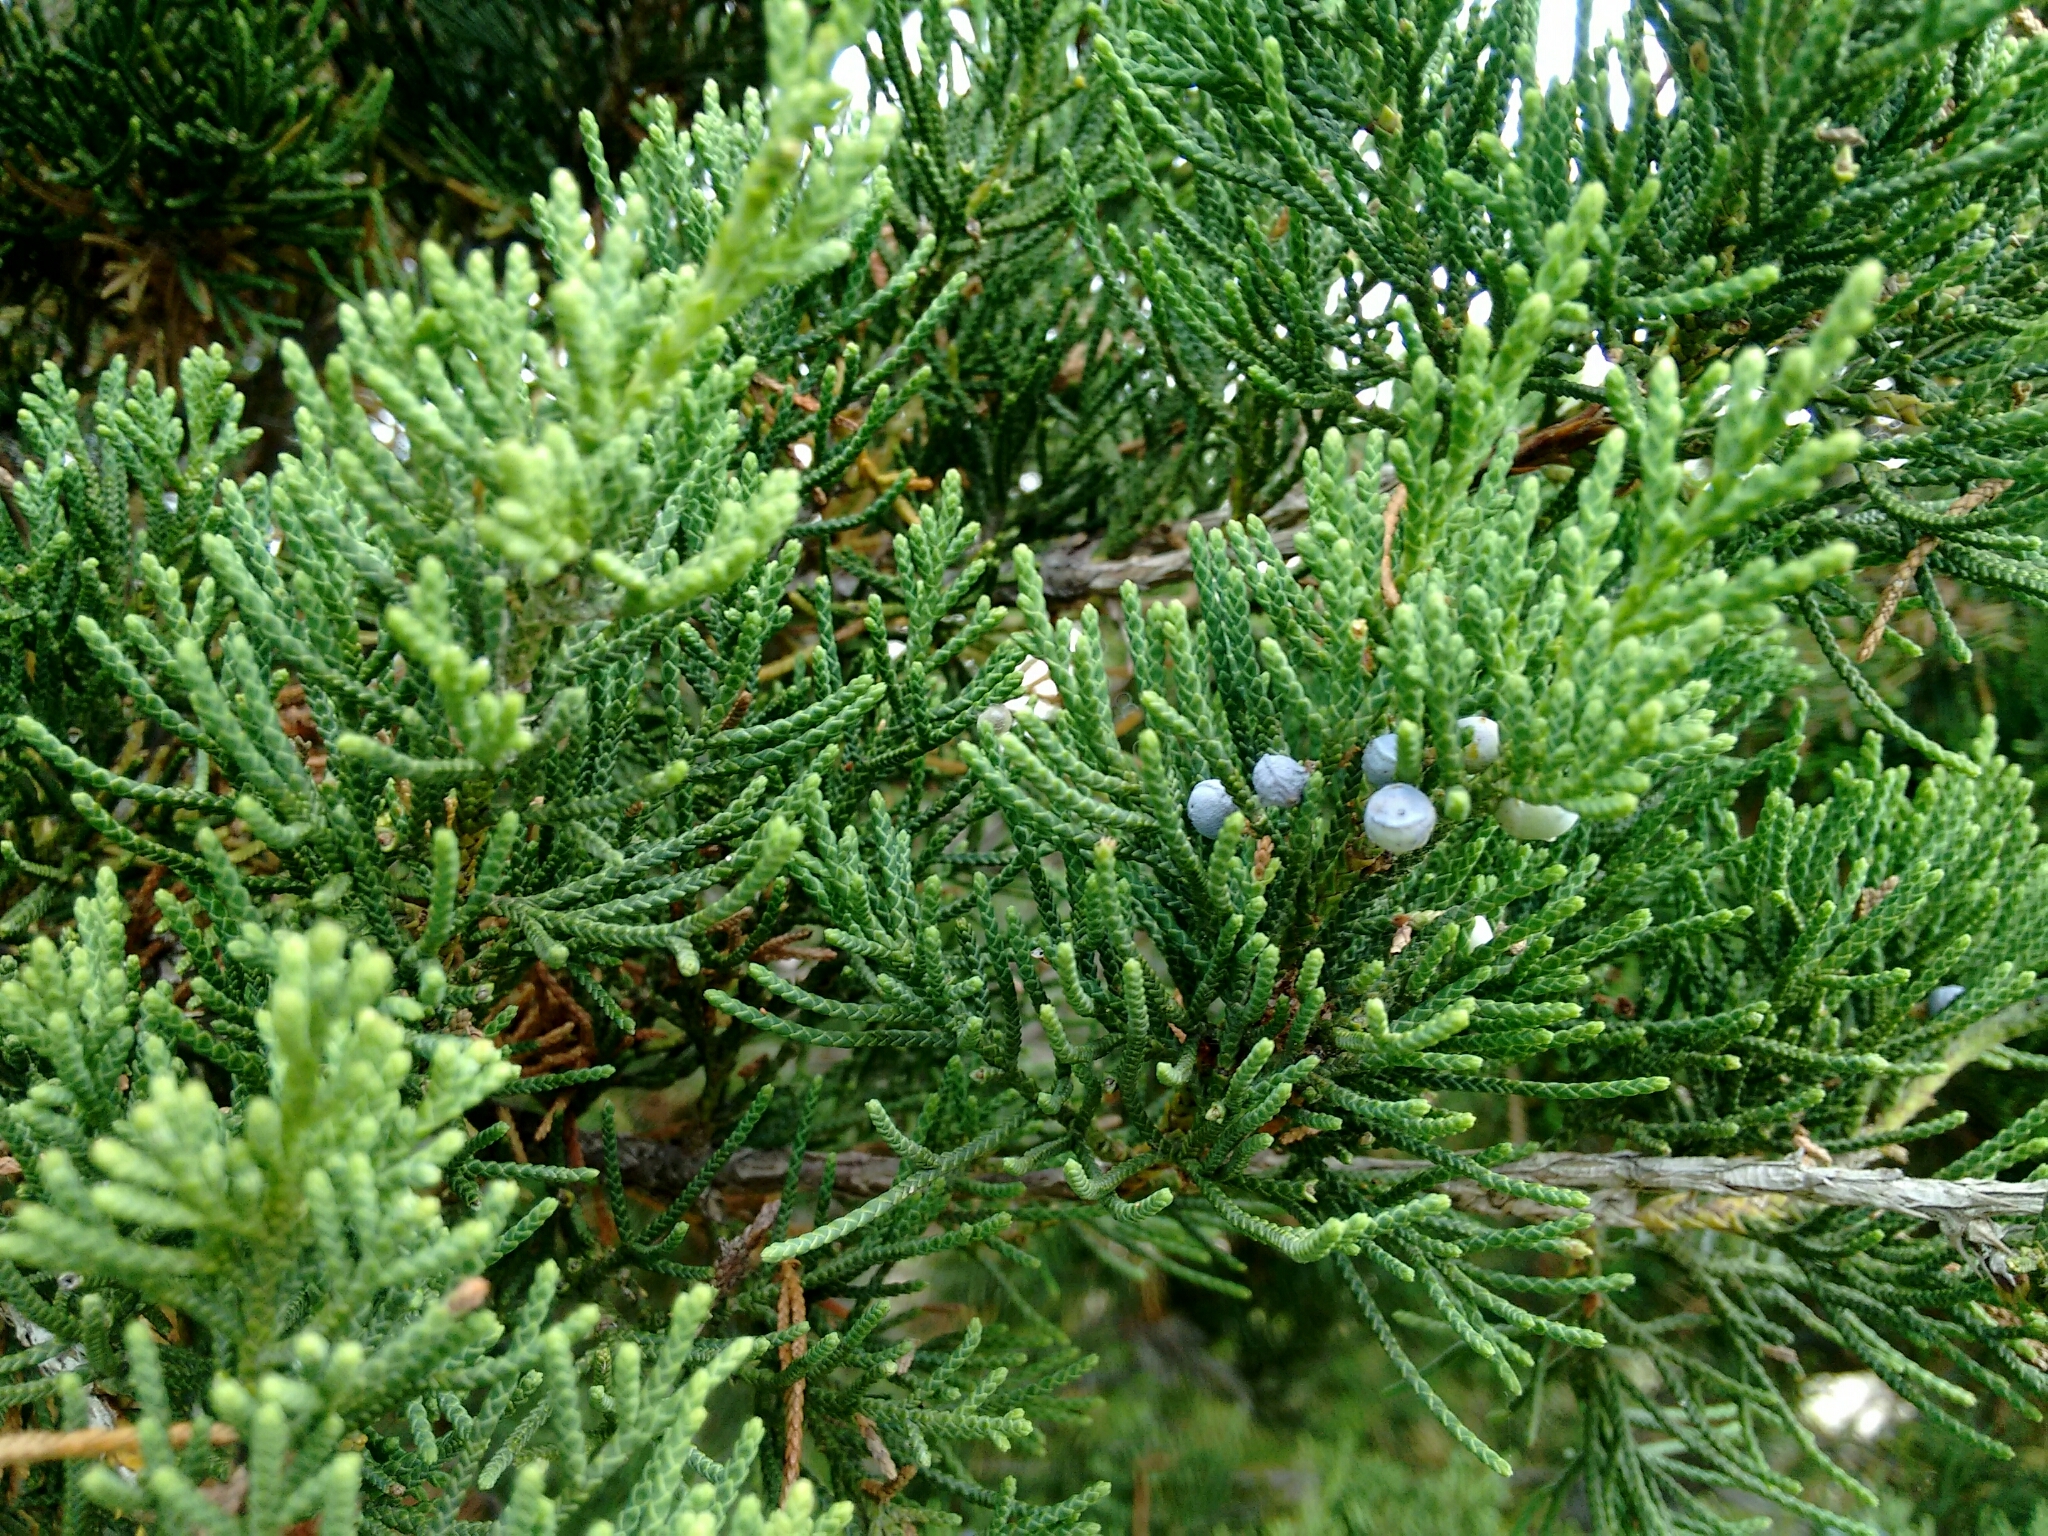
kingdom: Plantae
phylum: Tracheophyta
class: Pinopsida
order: Pinales
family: Cupressaceae
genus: Juniperus
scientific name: Juniperus virginiana
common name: Red juniper
